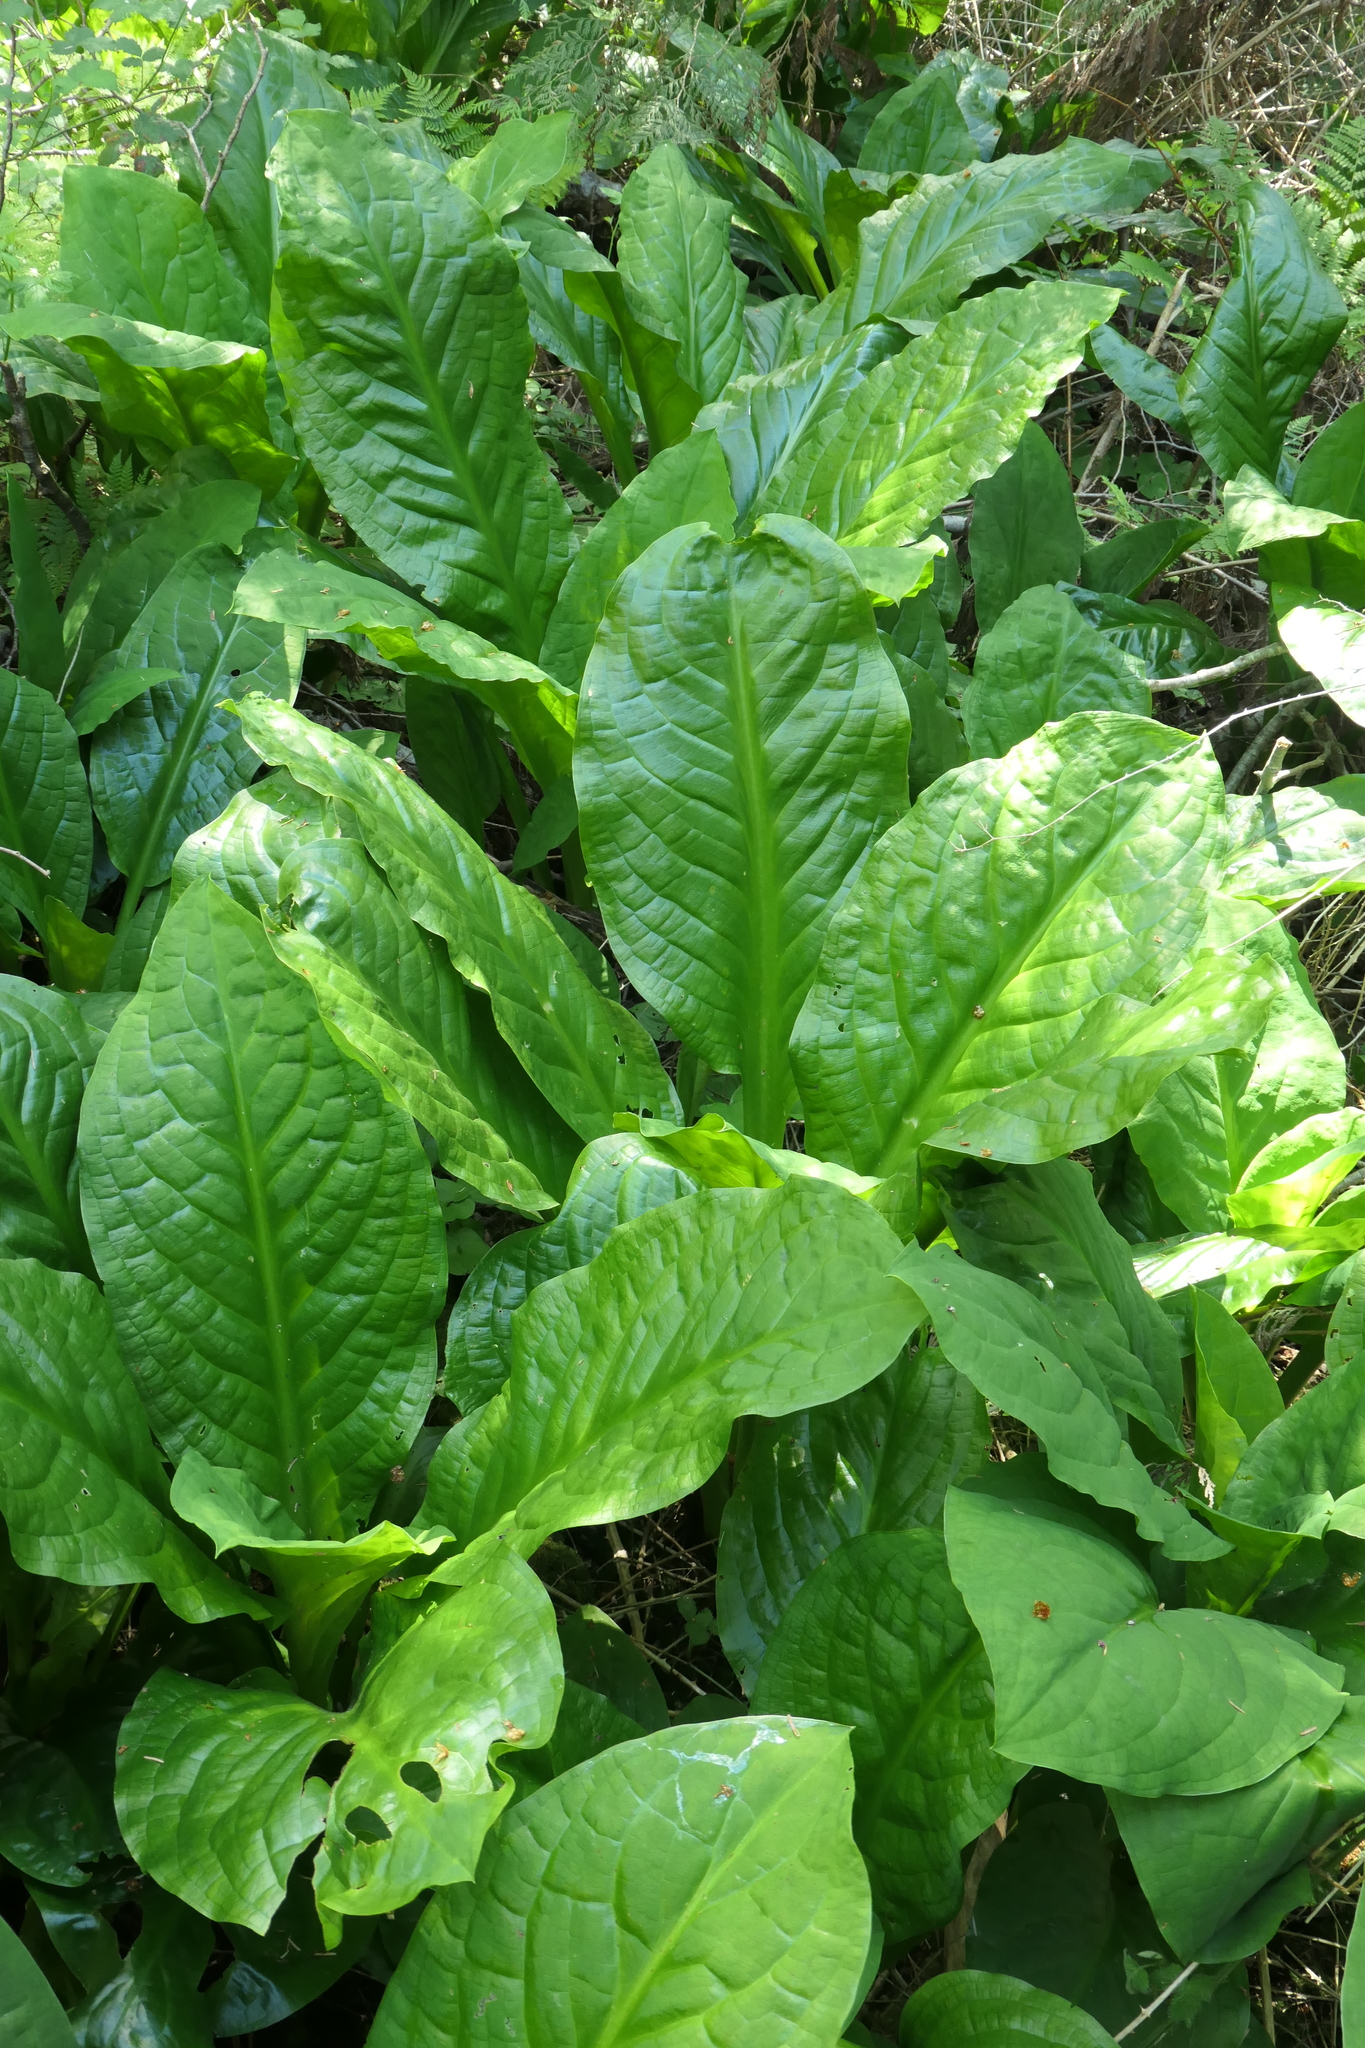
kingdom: Plantae
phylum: Tracheophyta
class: Liliopsida
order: Alismatales
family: Araceae
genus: Lysichiton
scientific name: Lysichiton americanus
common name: American skunk cabbage
